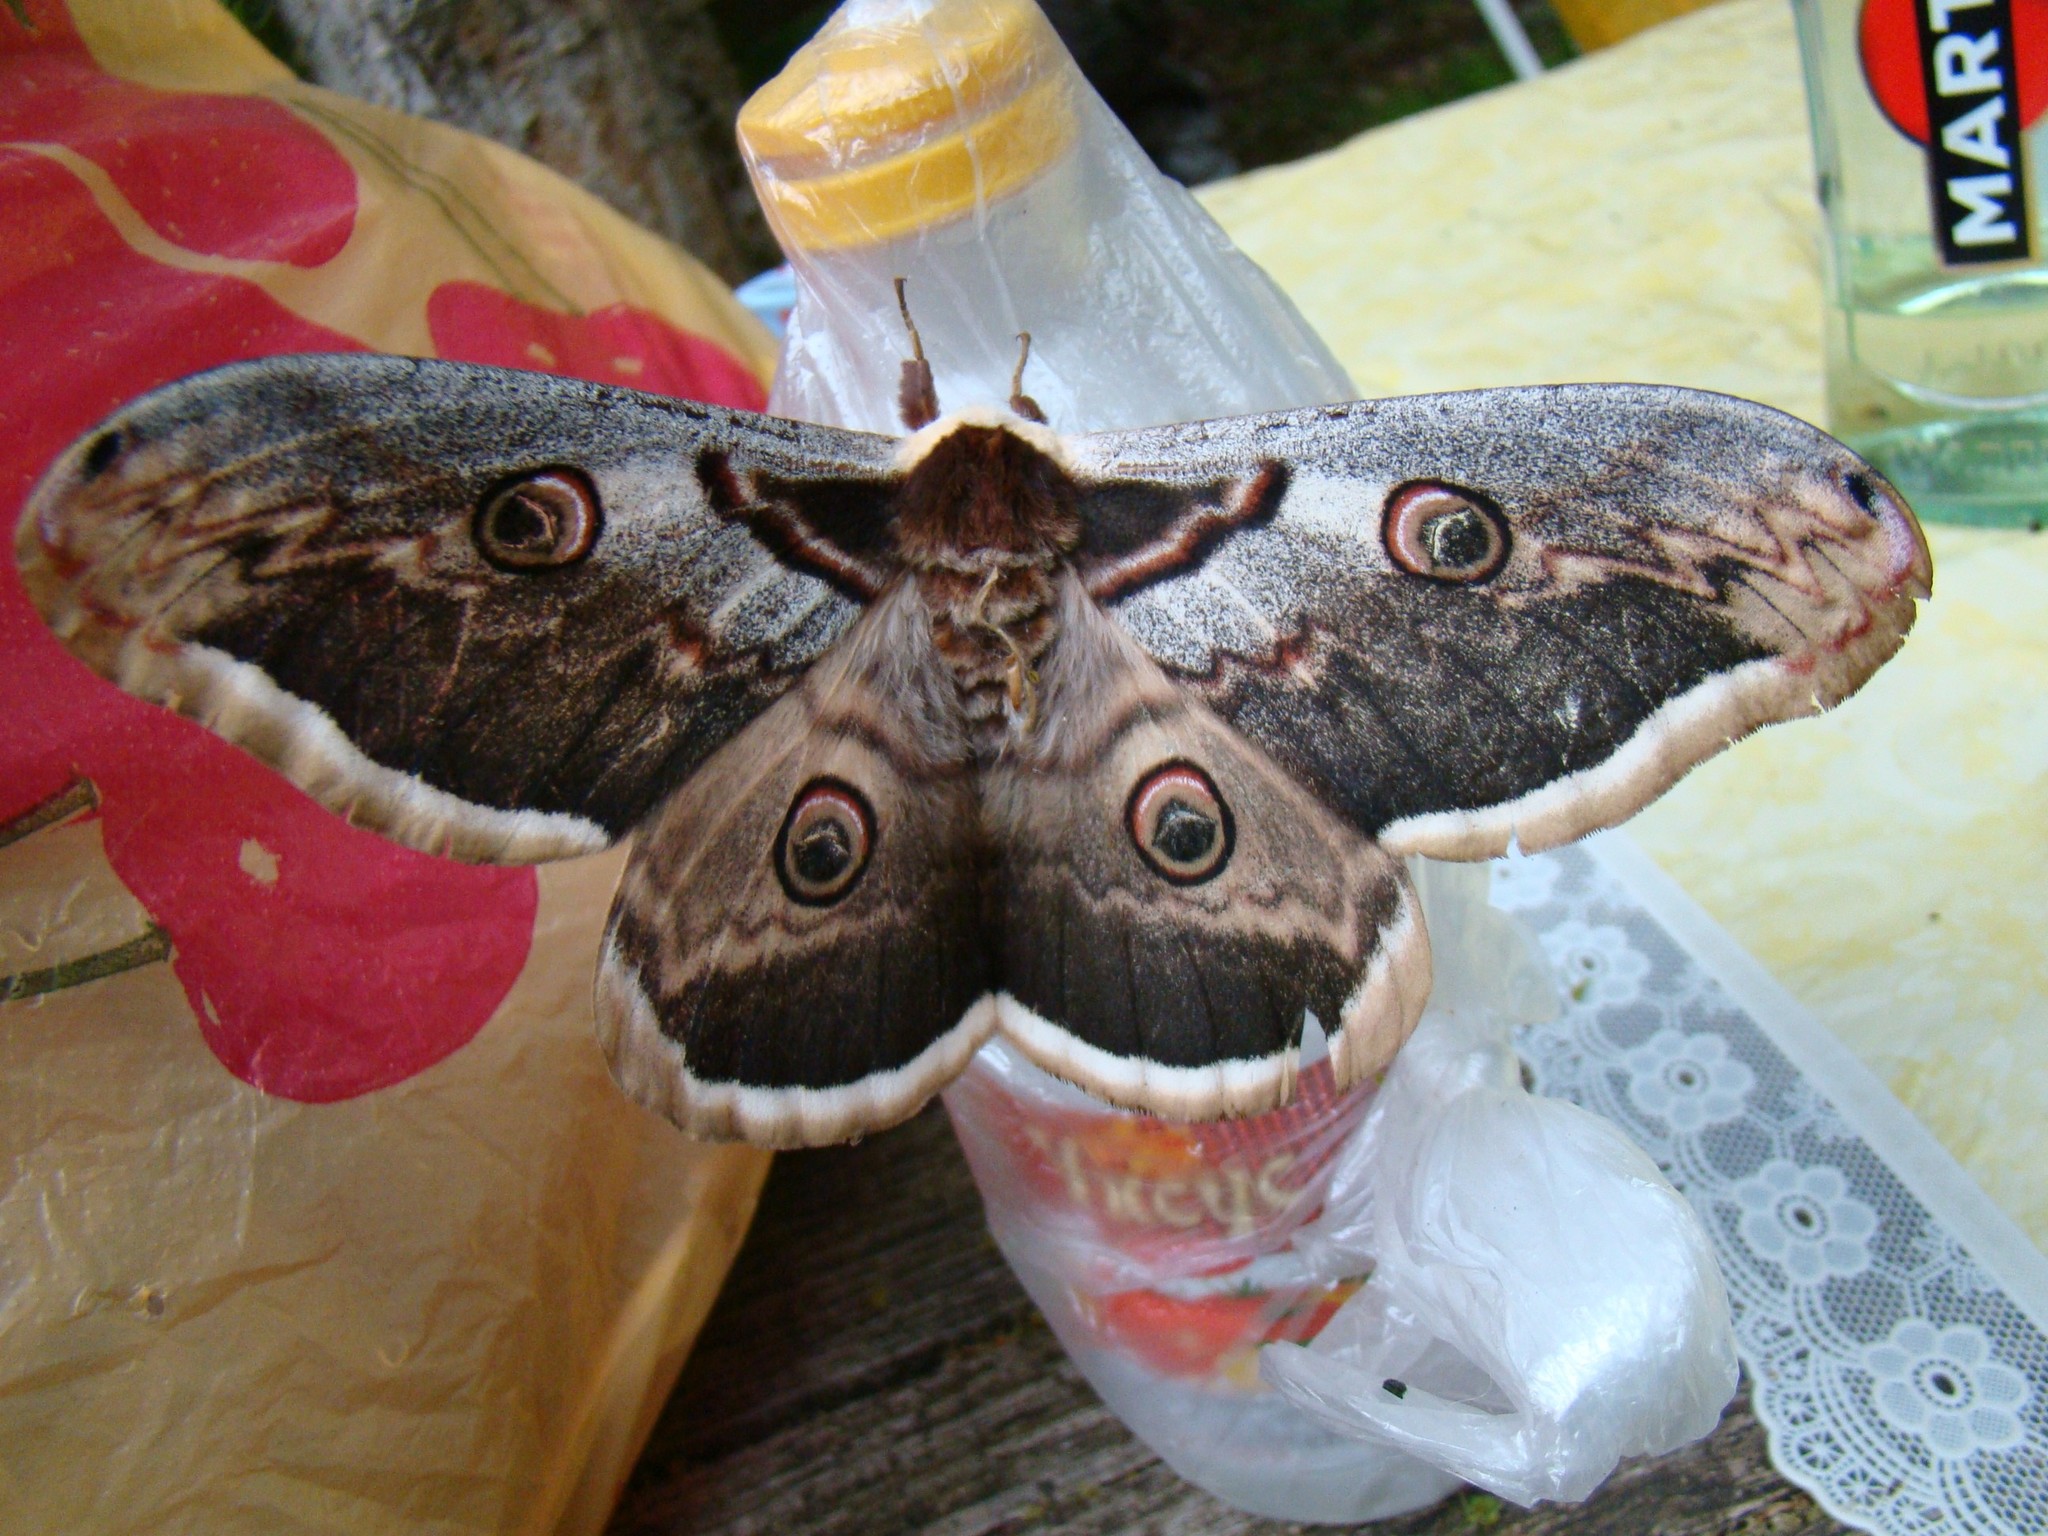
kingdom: Animalia
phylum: Arthropoda
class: Insecta
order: Lepidoptera
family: Saturniidae
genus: Saturnia
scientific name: Saturnia pyri
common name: Great peacock moth
